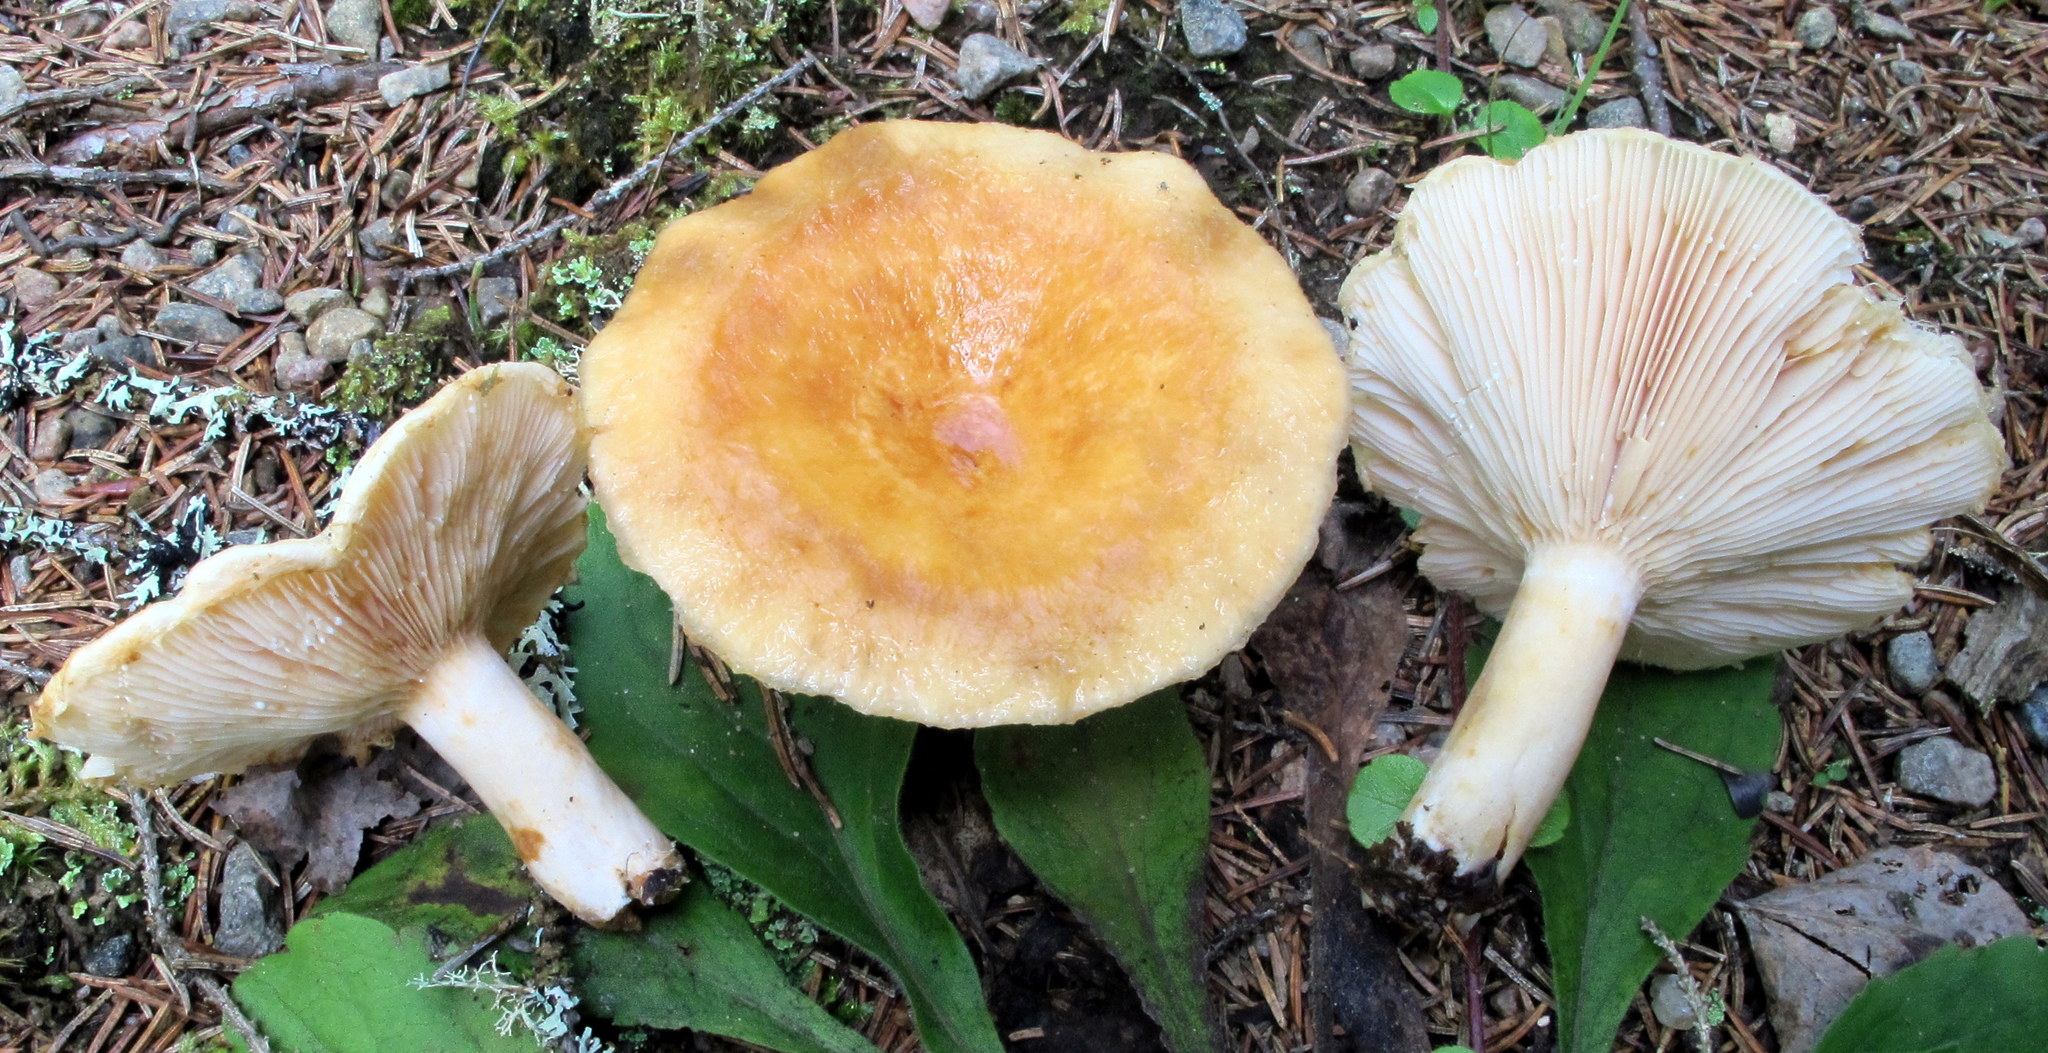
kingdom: Fungi
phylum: Basidiomycota
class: Agaricomycetes
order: Russulales
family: Russulaceae
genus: Lactarius
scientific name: Lactarius torminosus
